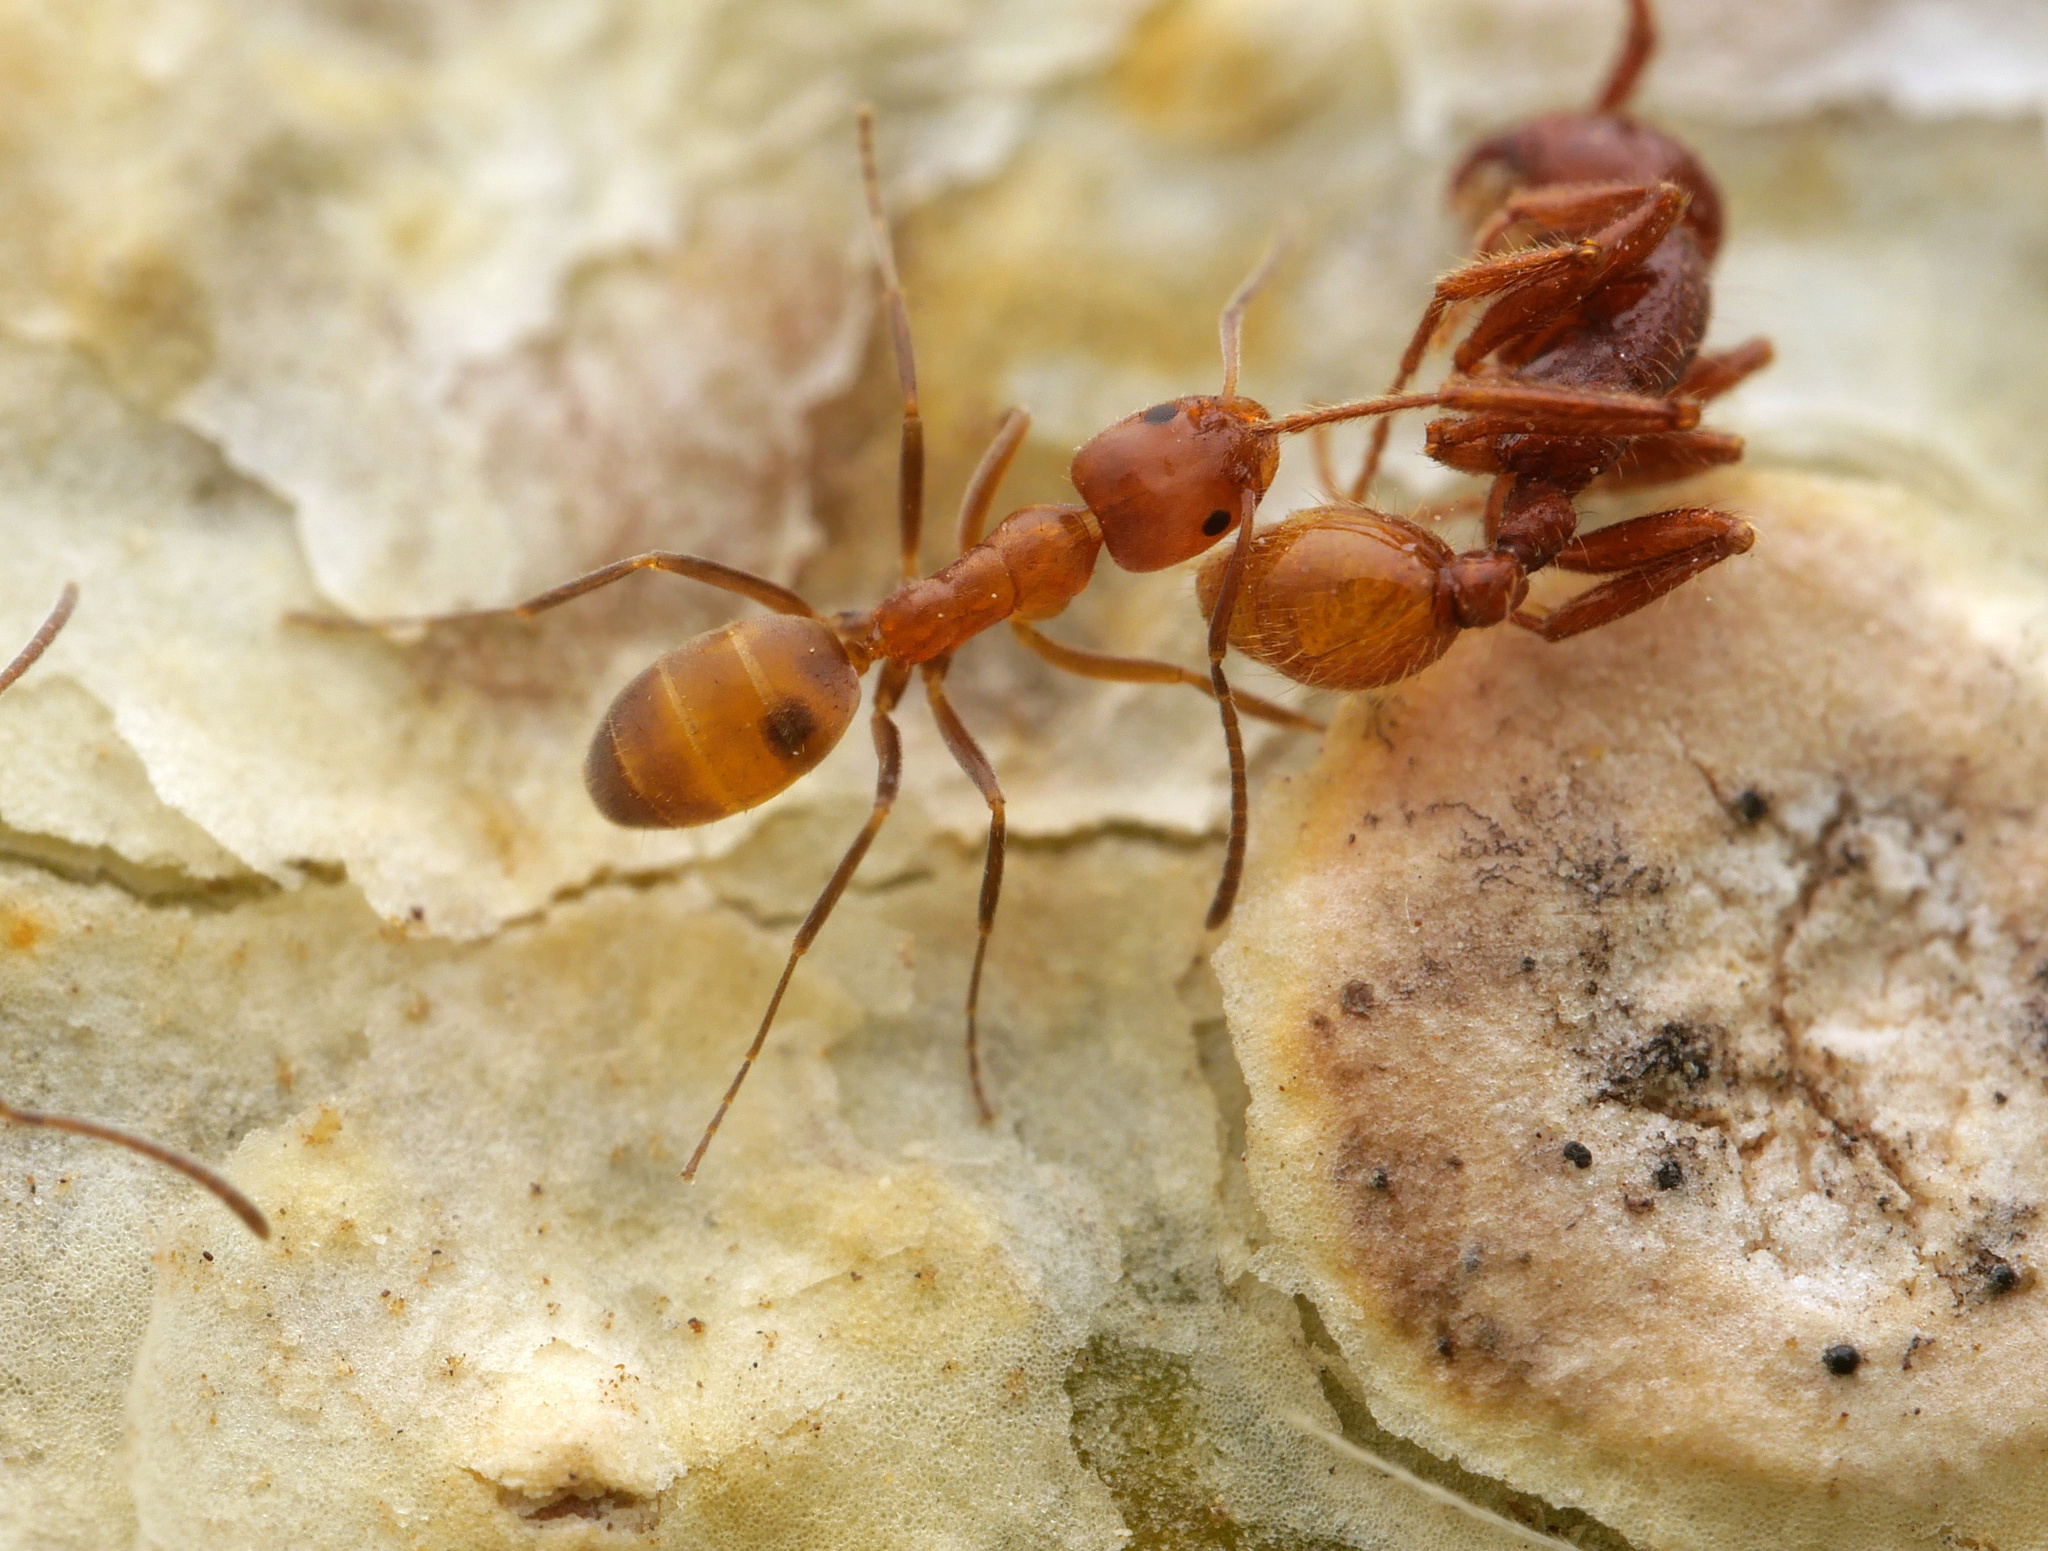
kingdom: Animalia
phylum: Arthropoda
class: Insecta
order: Hymenoptera
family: Formicidae
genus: Forelius
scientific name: Forelius mccooki
